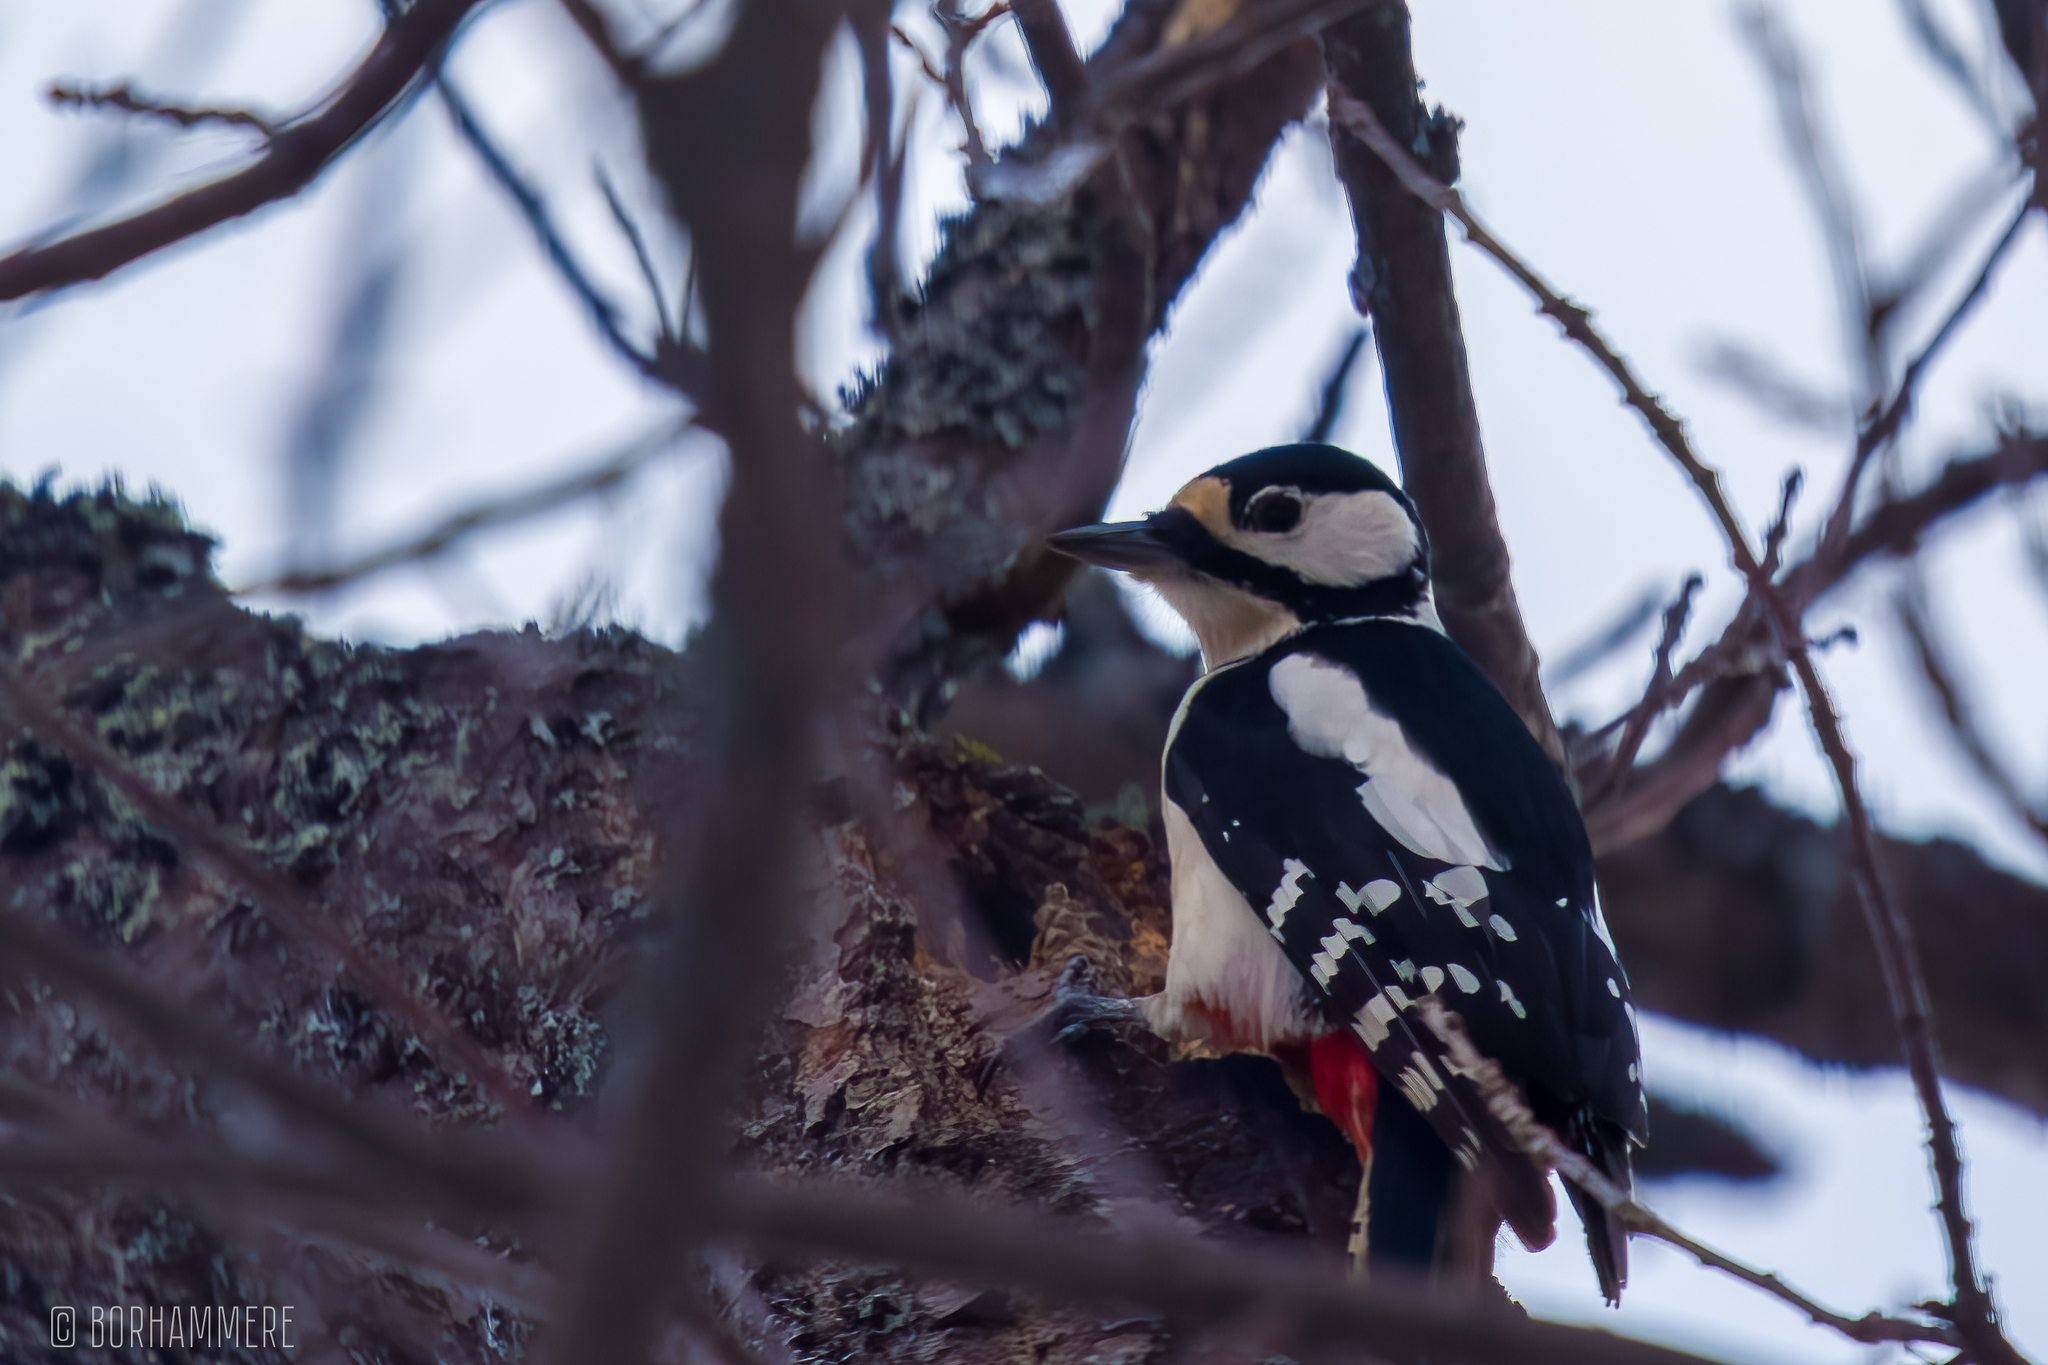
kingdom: Animalia
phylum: Chordata
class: Aves
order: Piciformes
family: Picidae
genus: Dendrocopos
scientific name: Dendrocopos major
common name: Great spotted woodpecker
